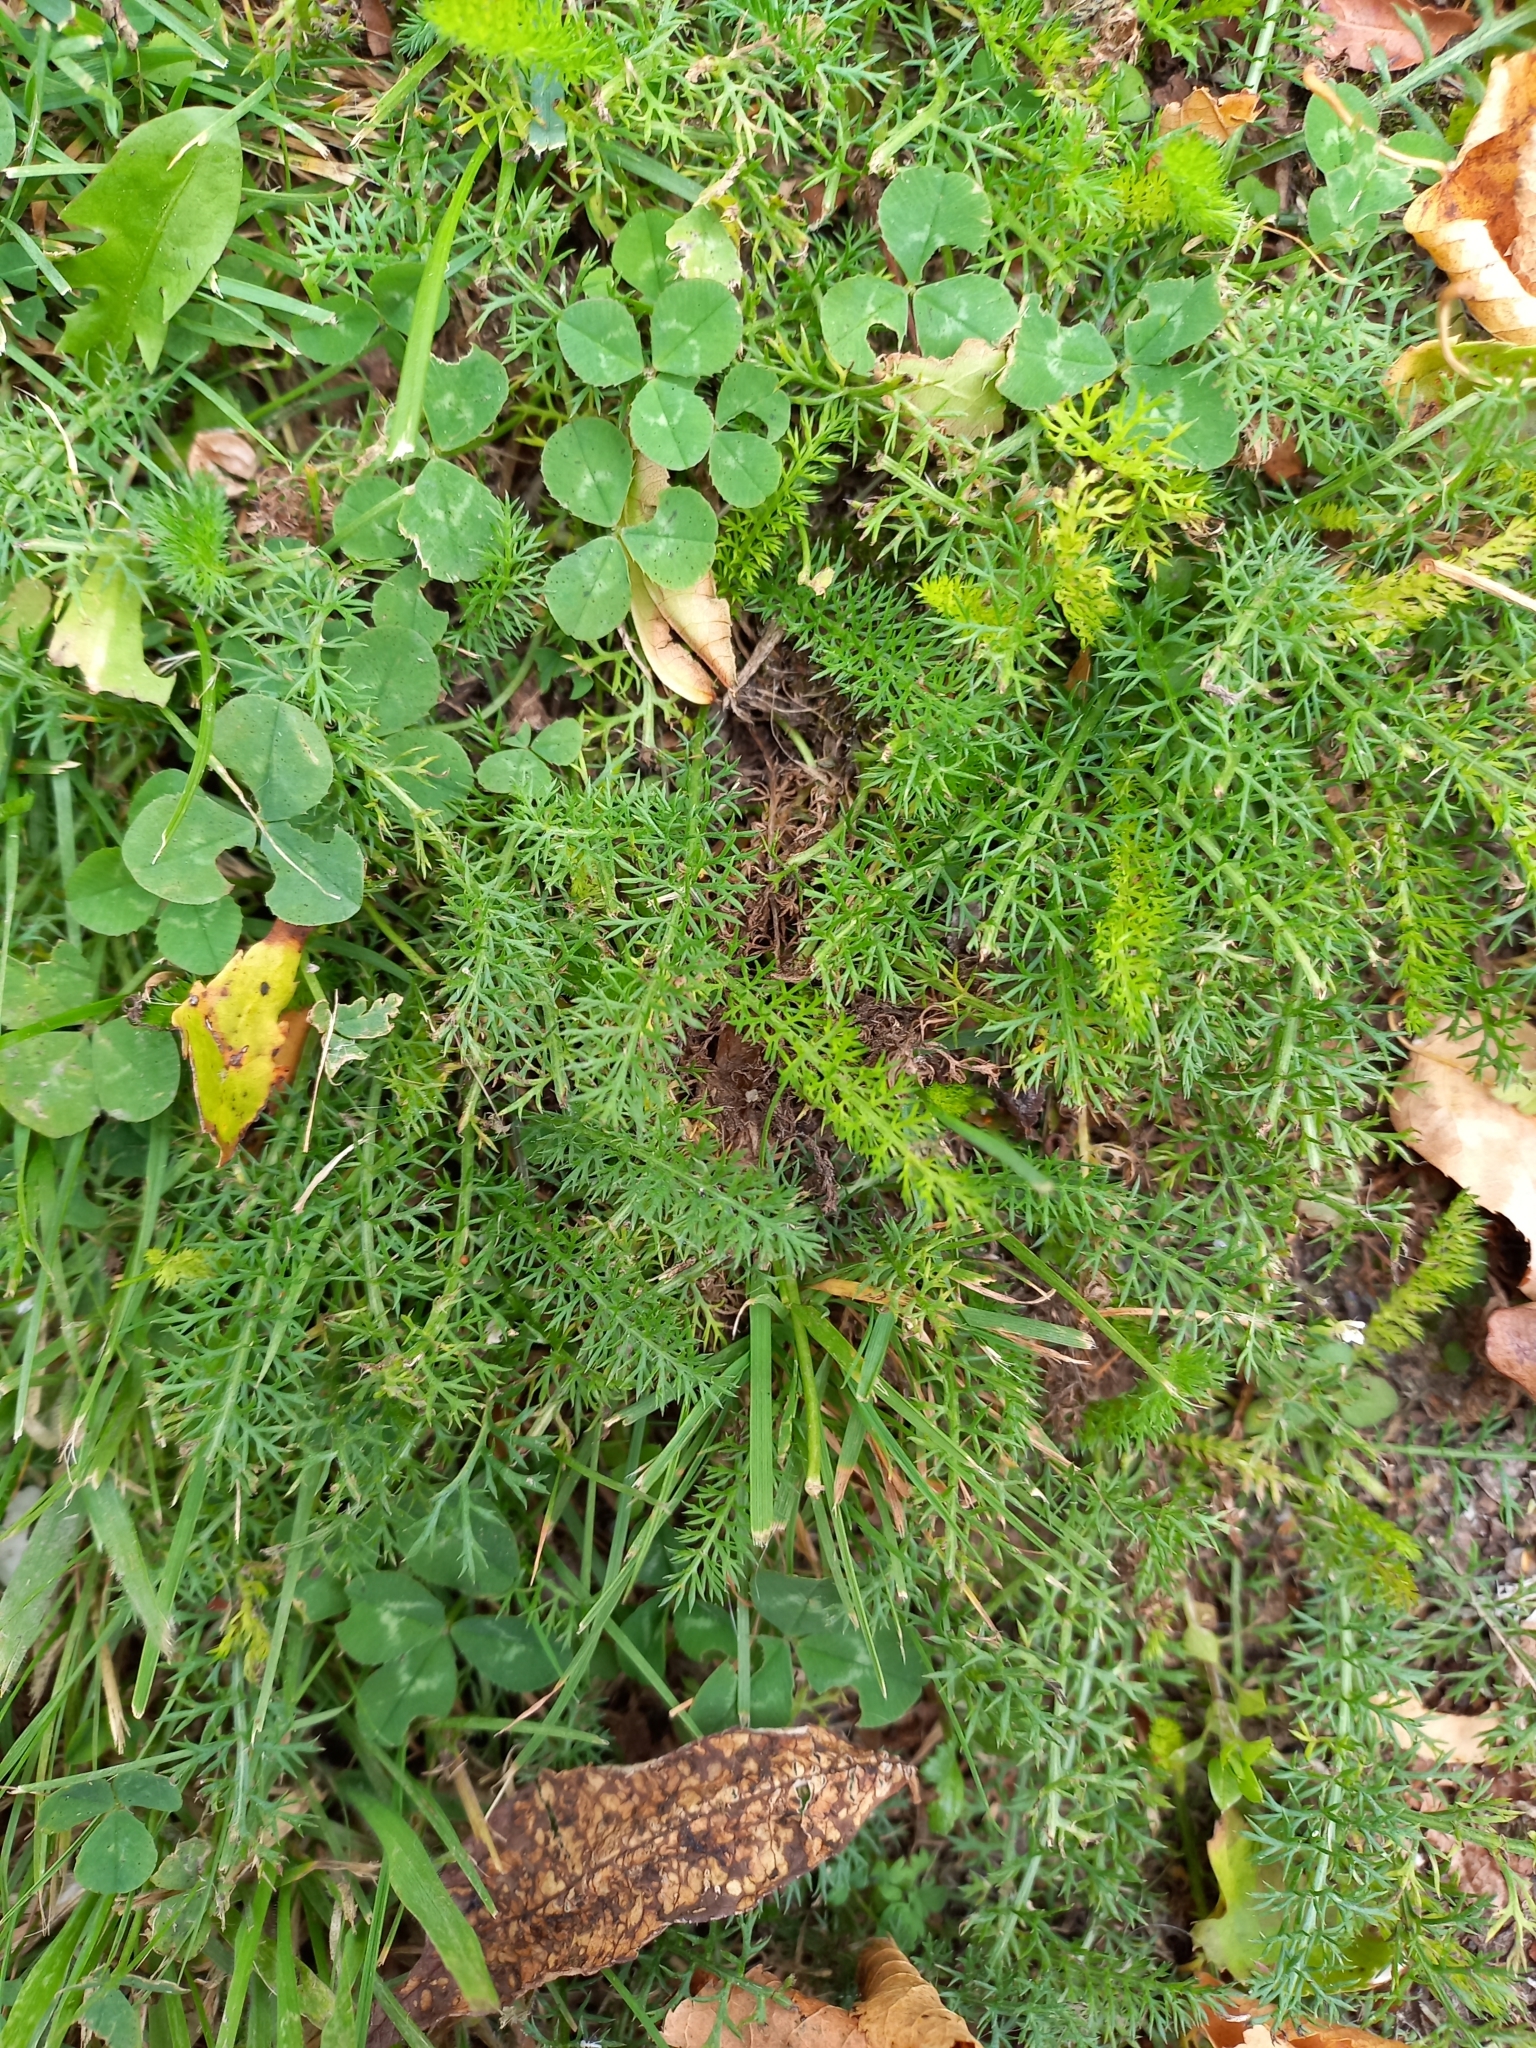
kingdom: Plantae
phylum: Tracheophyta
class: Magnoliopsida
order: Asterales
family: Asteraceae
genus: Achillea
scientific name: Achillea millefolium
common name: Yarrow
